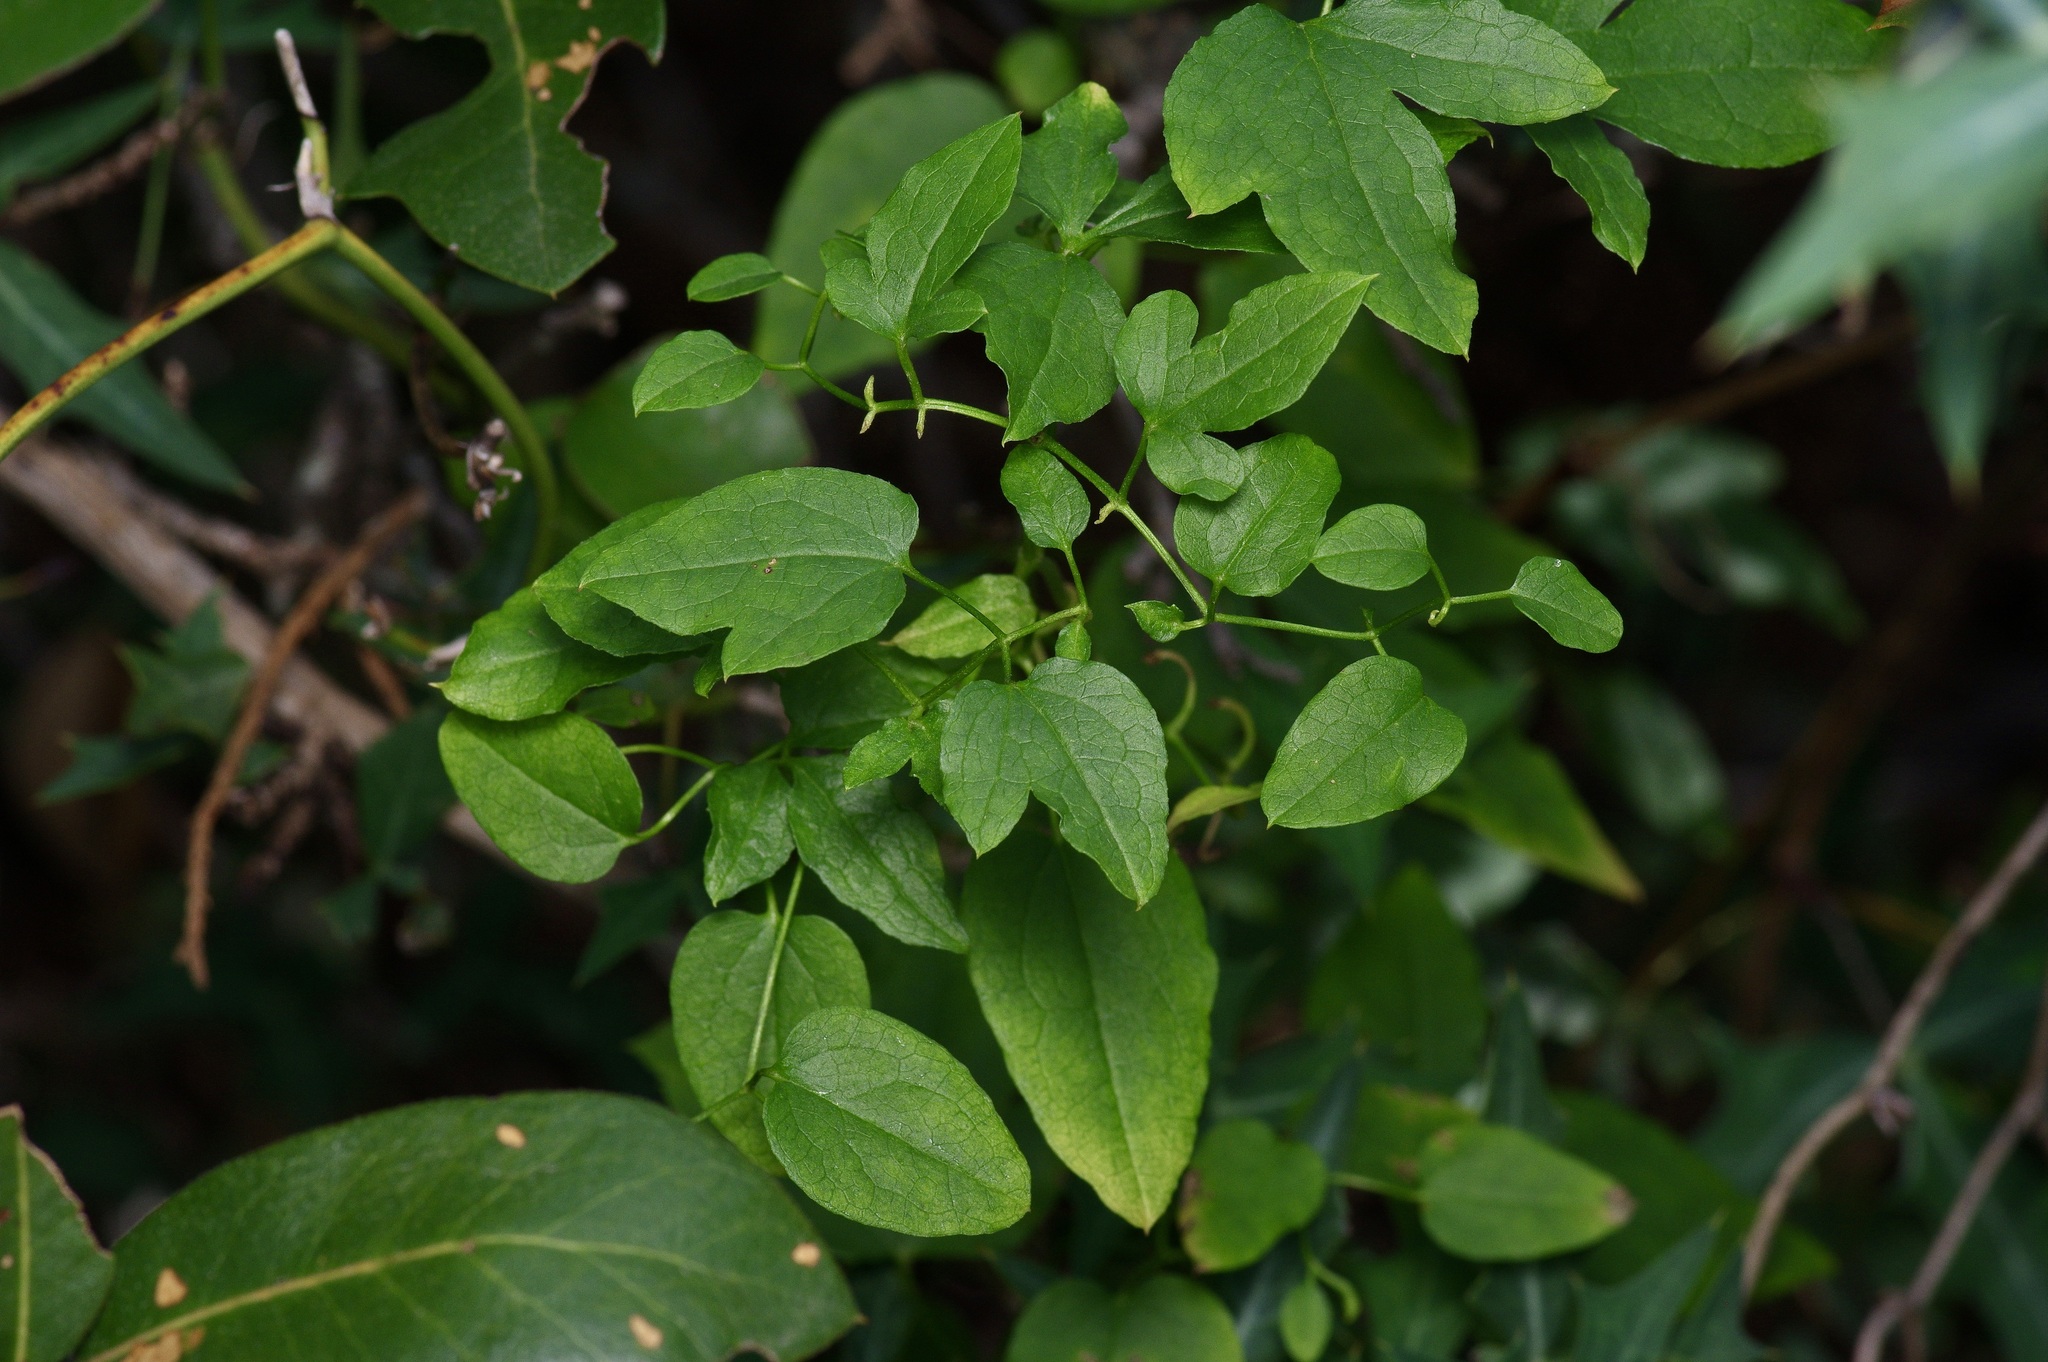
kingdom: Plantae
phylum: Tracheophyta
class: Magnoliopsida
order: Ranunculales
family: Ranunculaceae
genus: Clematis
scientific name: Clematis pitcheri
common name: Bellflower clematis
